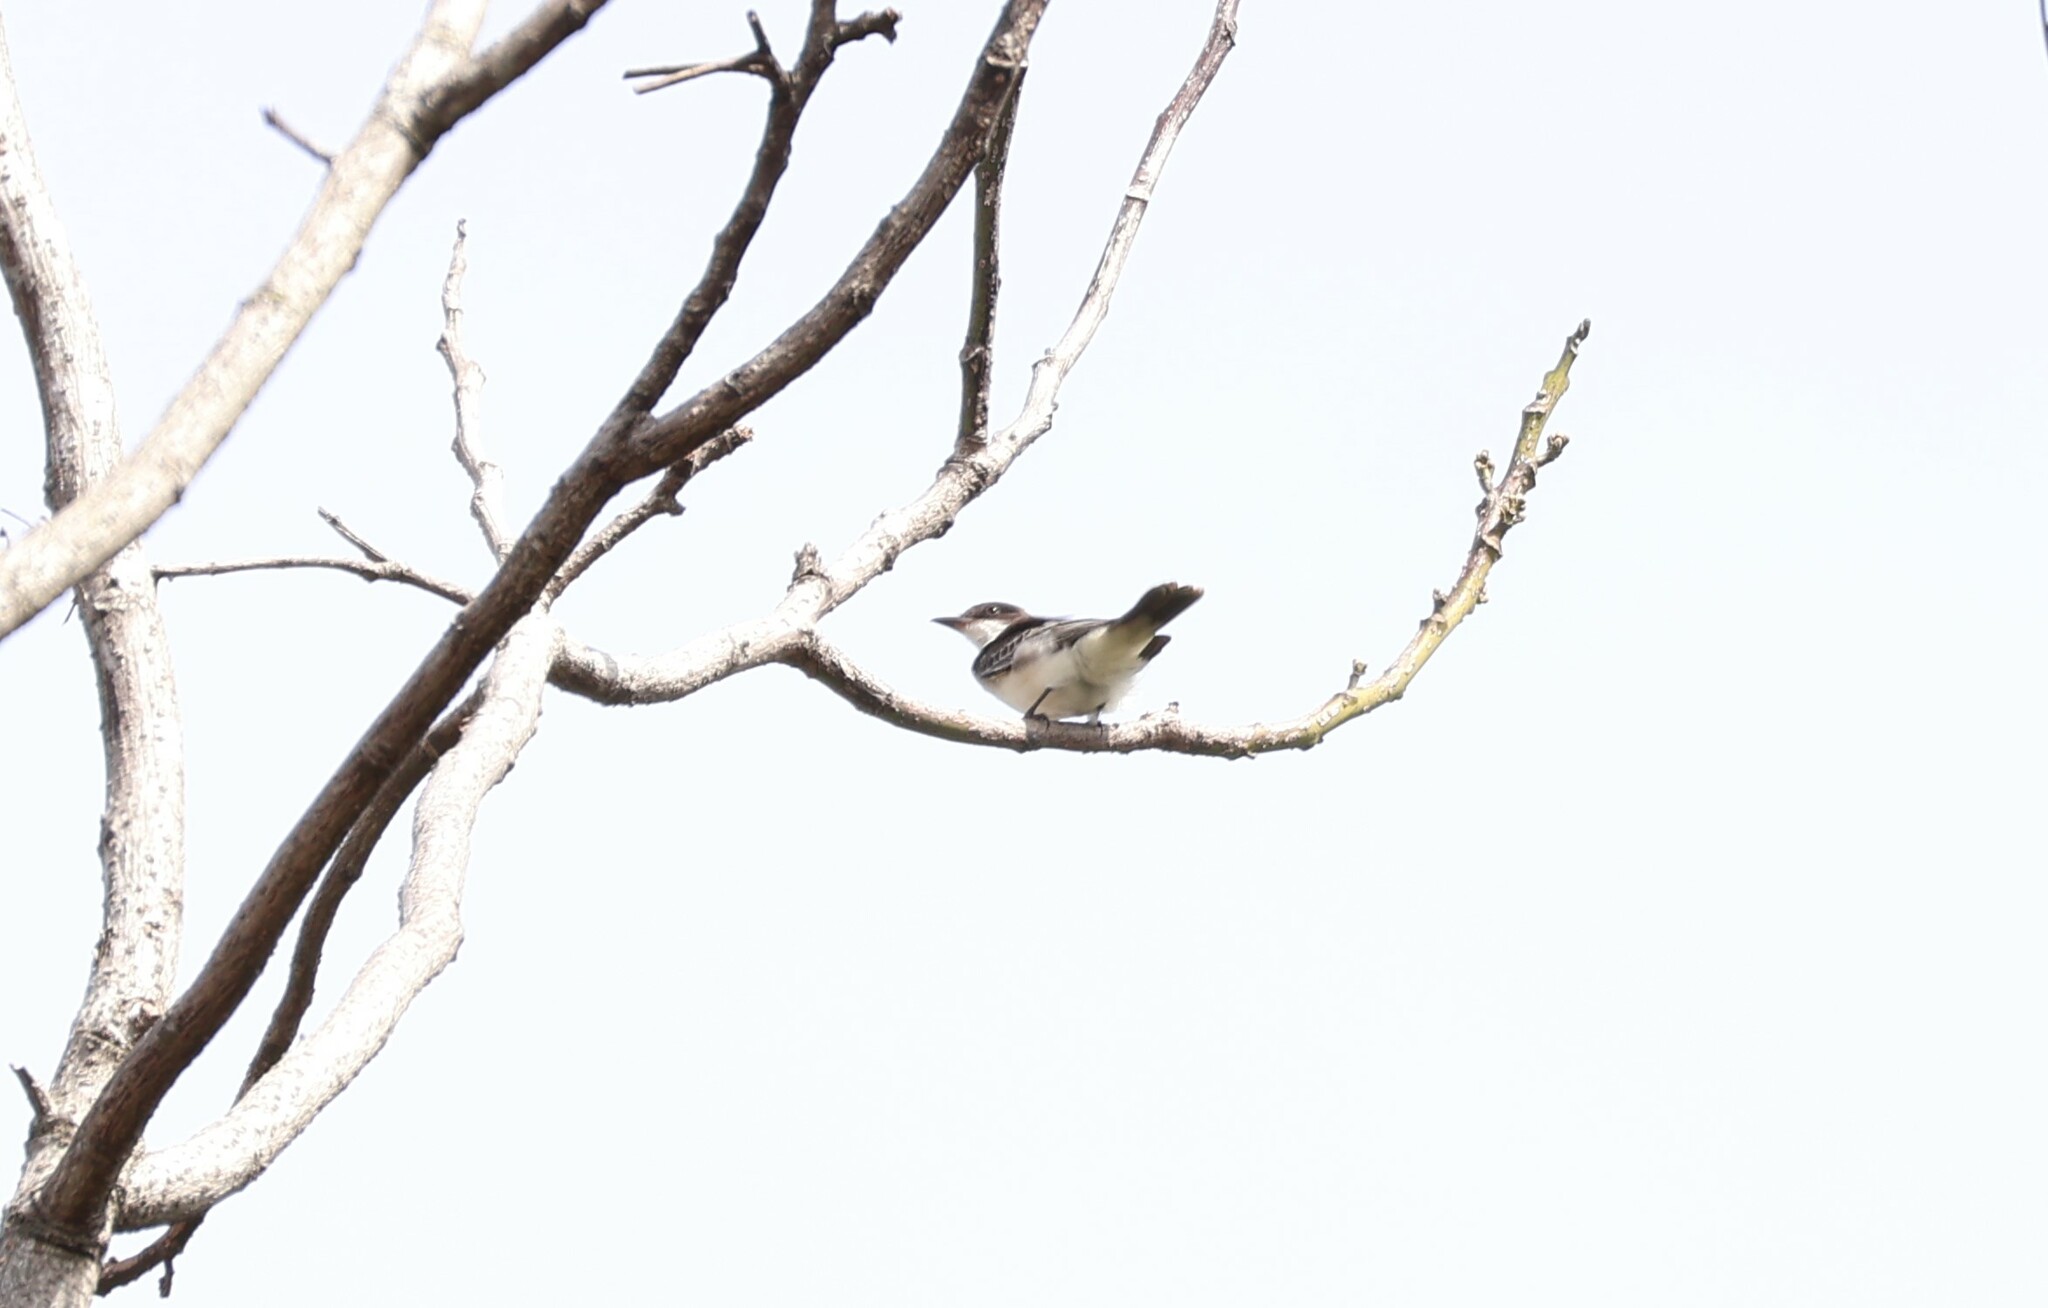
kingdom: Animalia
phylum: Chordata
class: Aves
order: Passeriformes
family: Tyrannidae
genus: Tyrannus
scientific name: Tyrannus tyrannus
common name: Eastern kingbird
